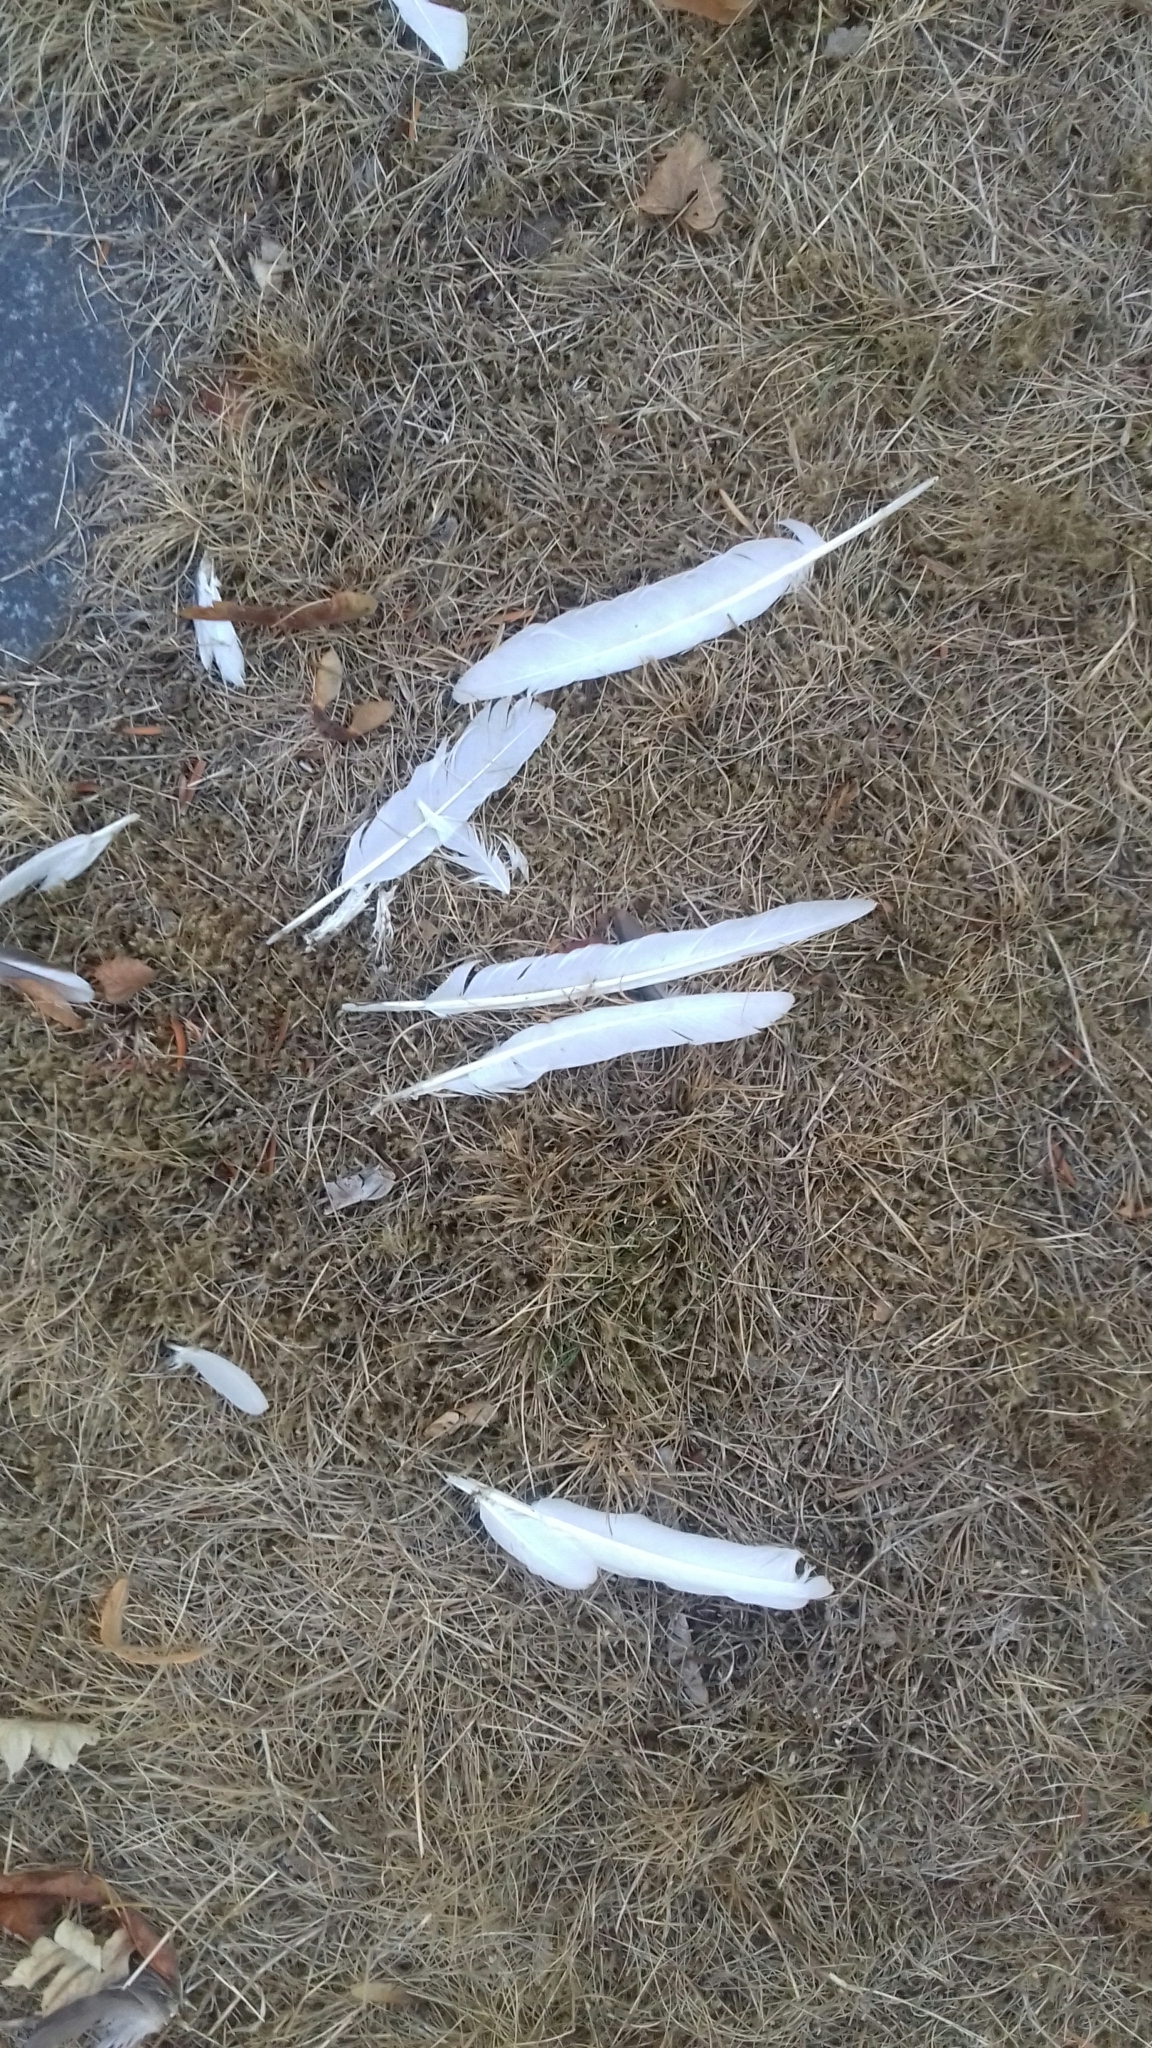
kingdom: Animalia
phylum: Chordata
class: Aves
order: Columbiformes
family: Columbidae
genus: Columba
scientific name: Columba livia
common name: Rock pigeon
